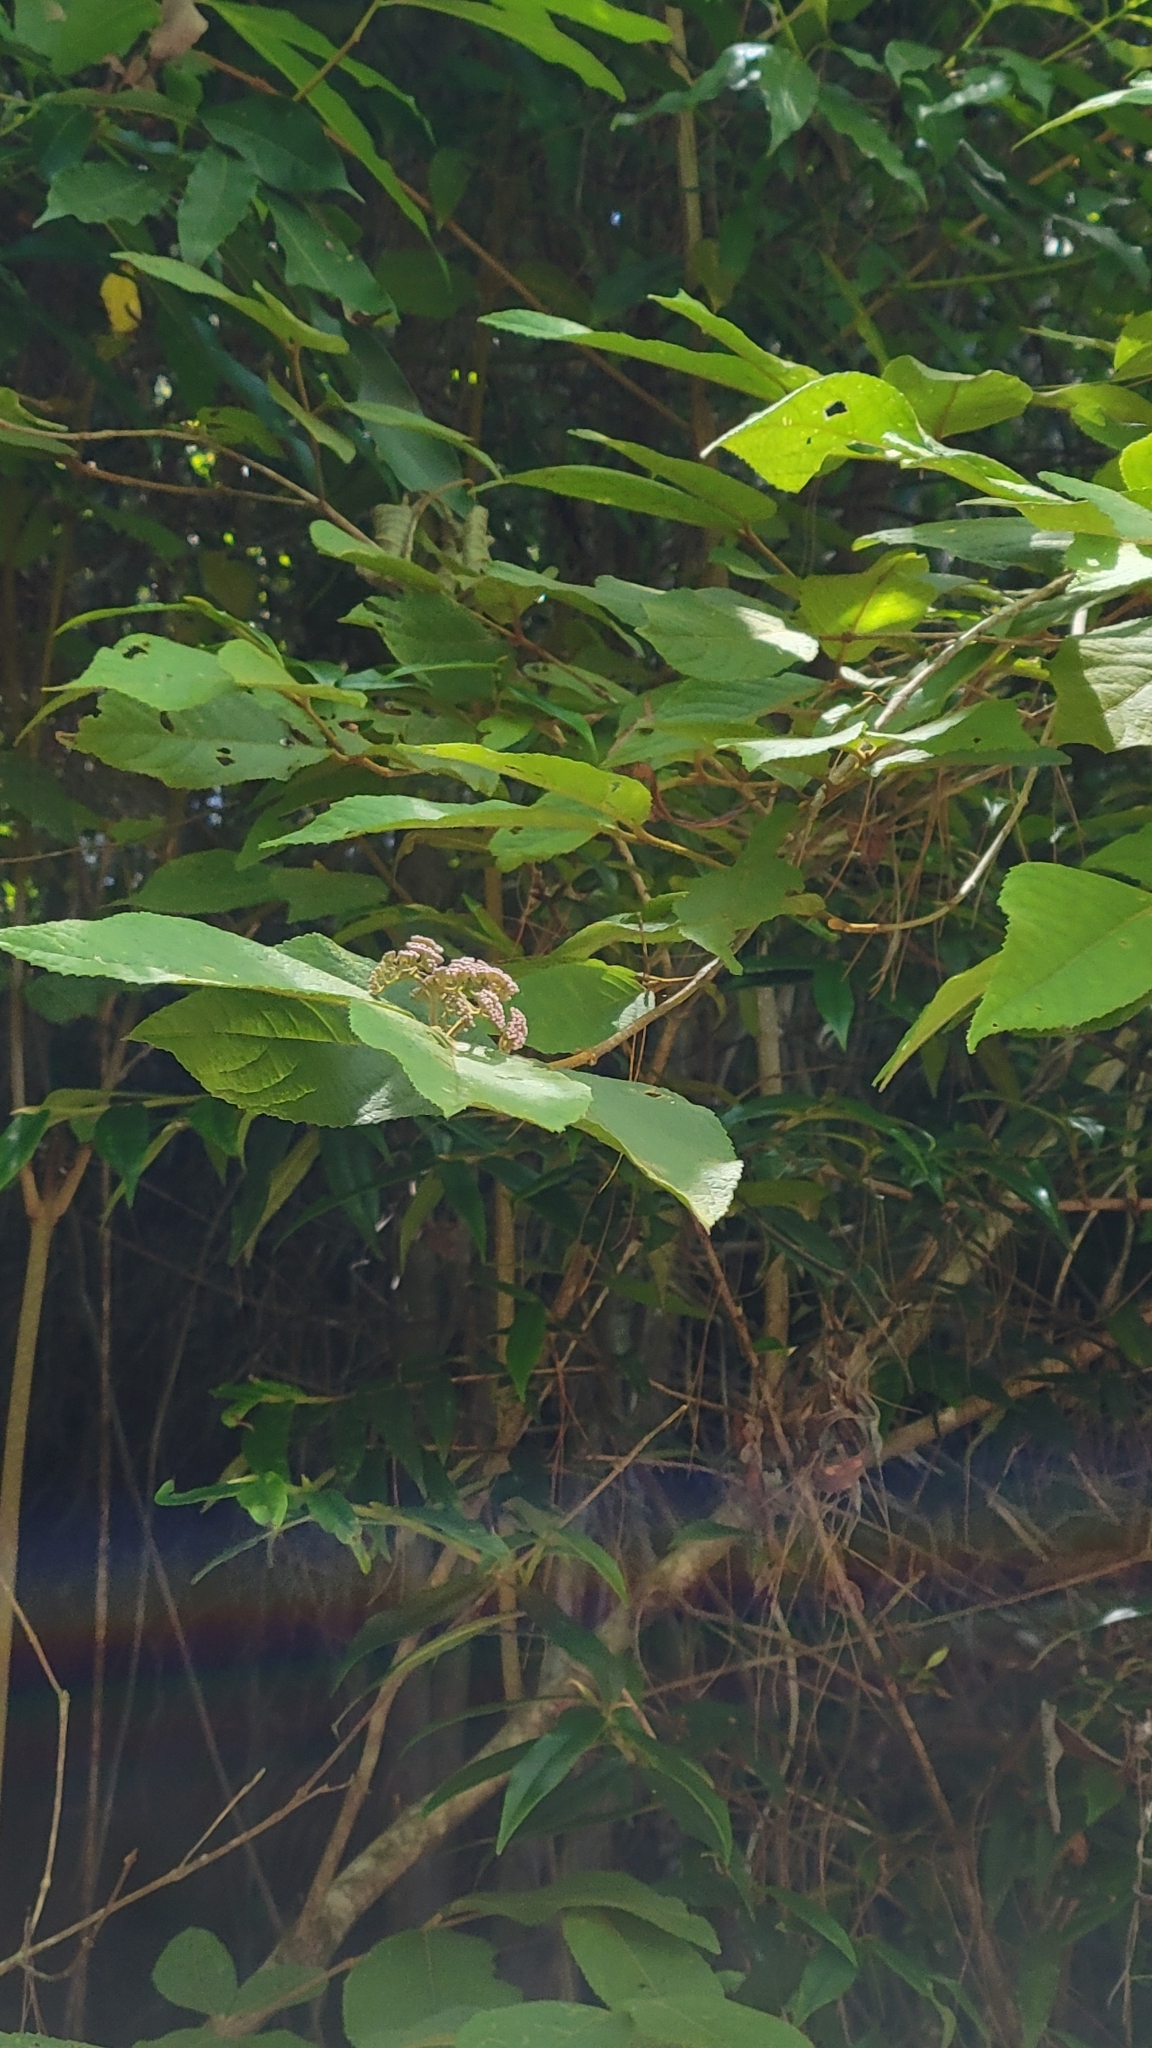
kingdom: Plantae
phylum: Tracheophyta
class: Magnoliopsida
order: Lamiales
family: Lamiaceae
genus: Callicarpa
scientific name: Callicarpa pedunculata
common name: Velvetleaf
